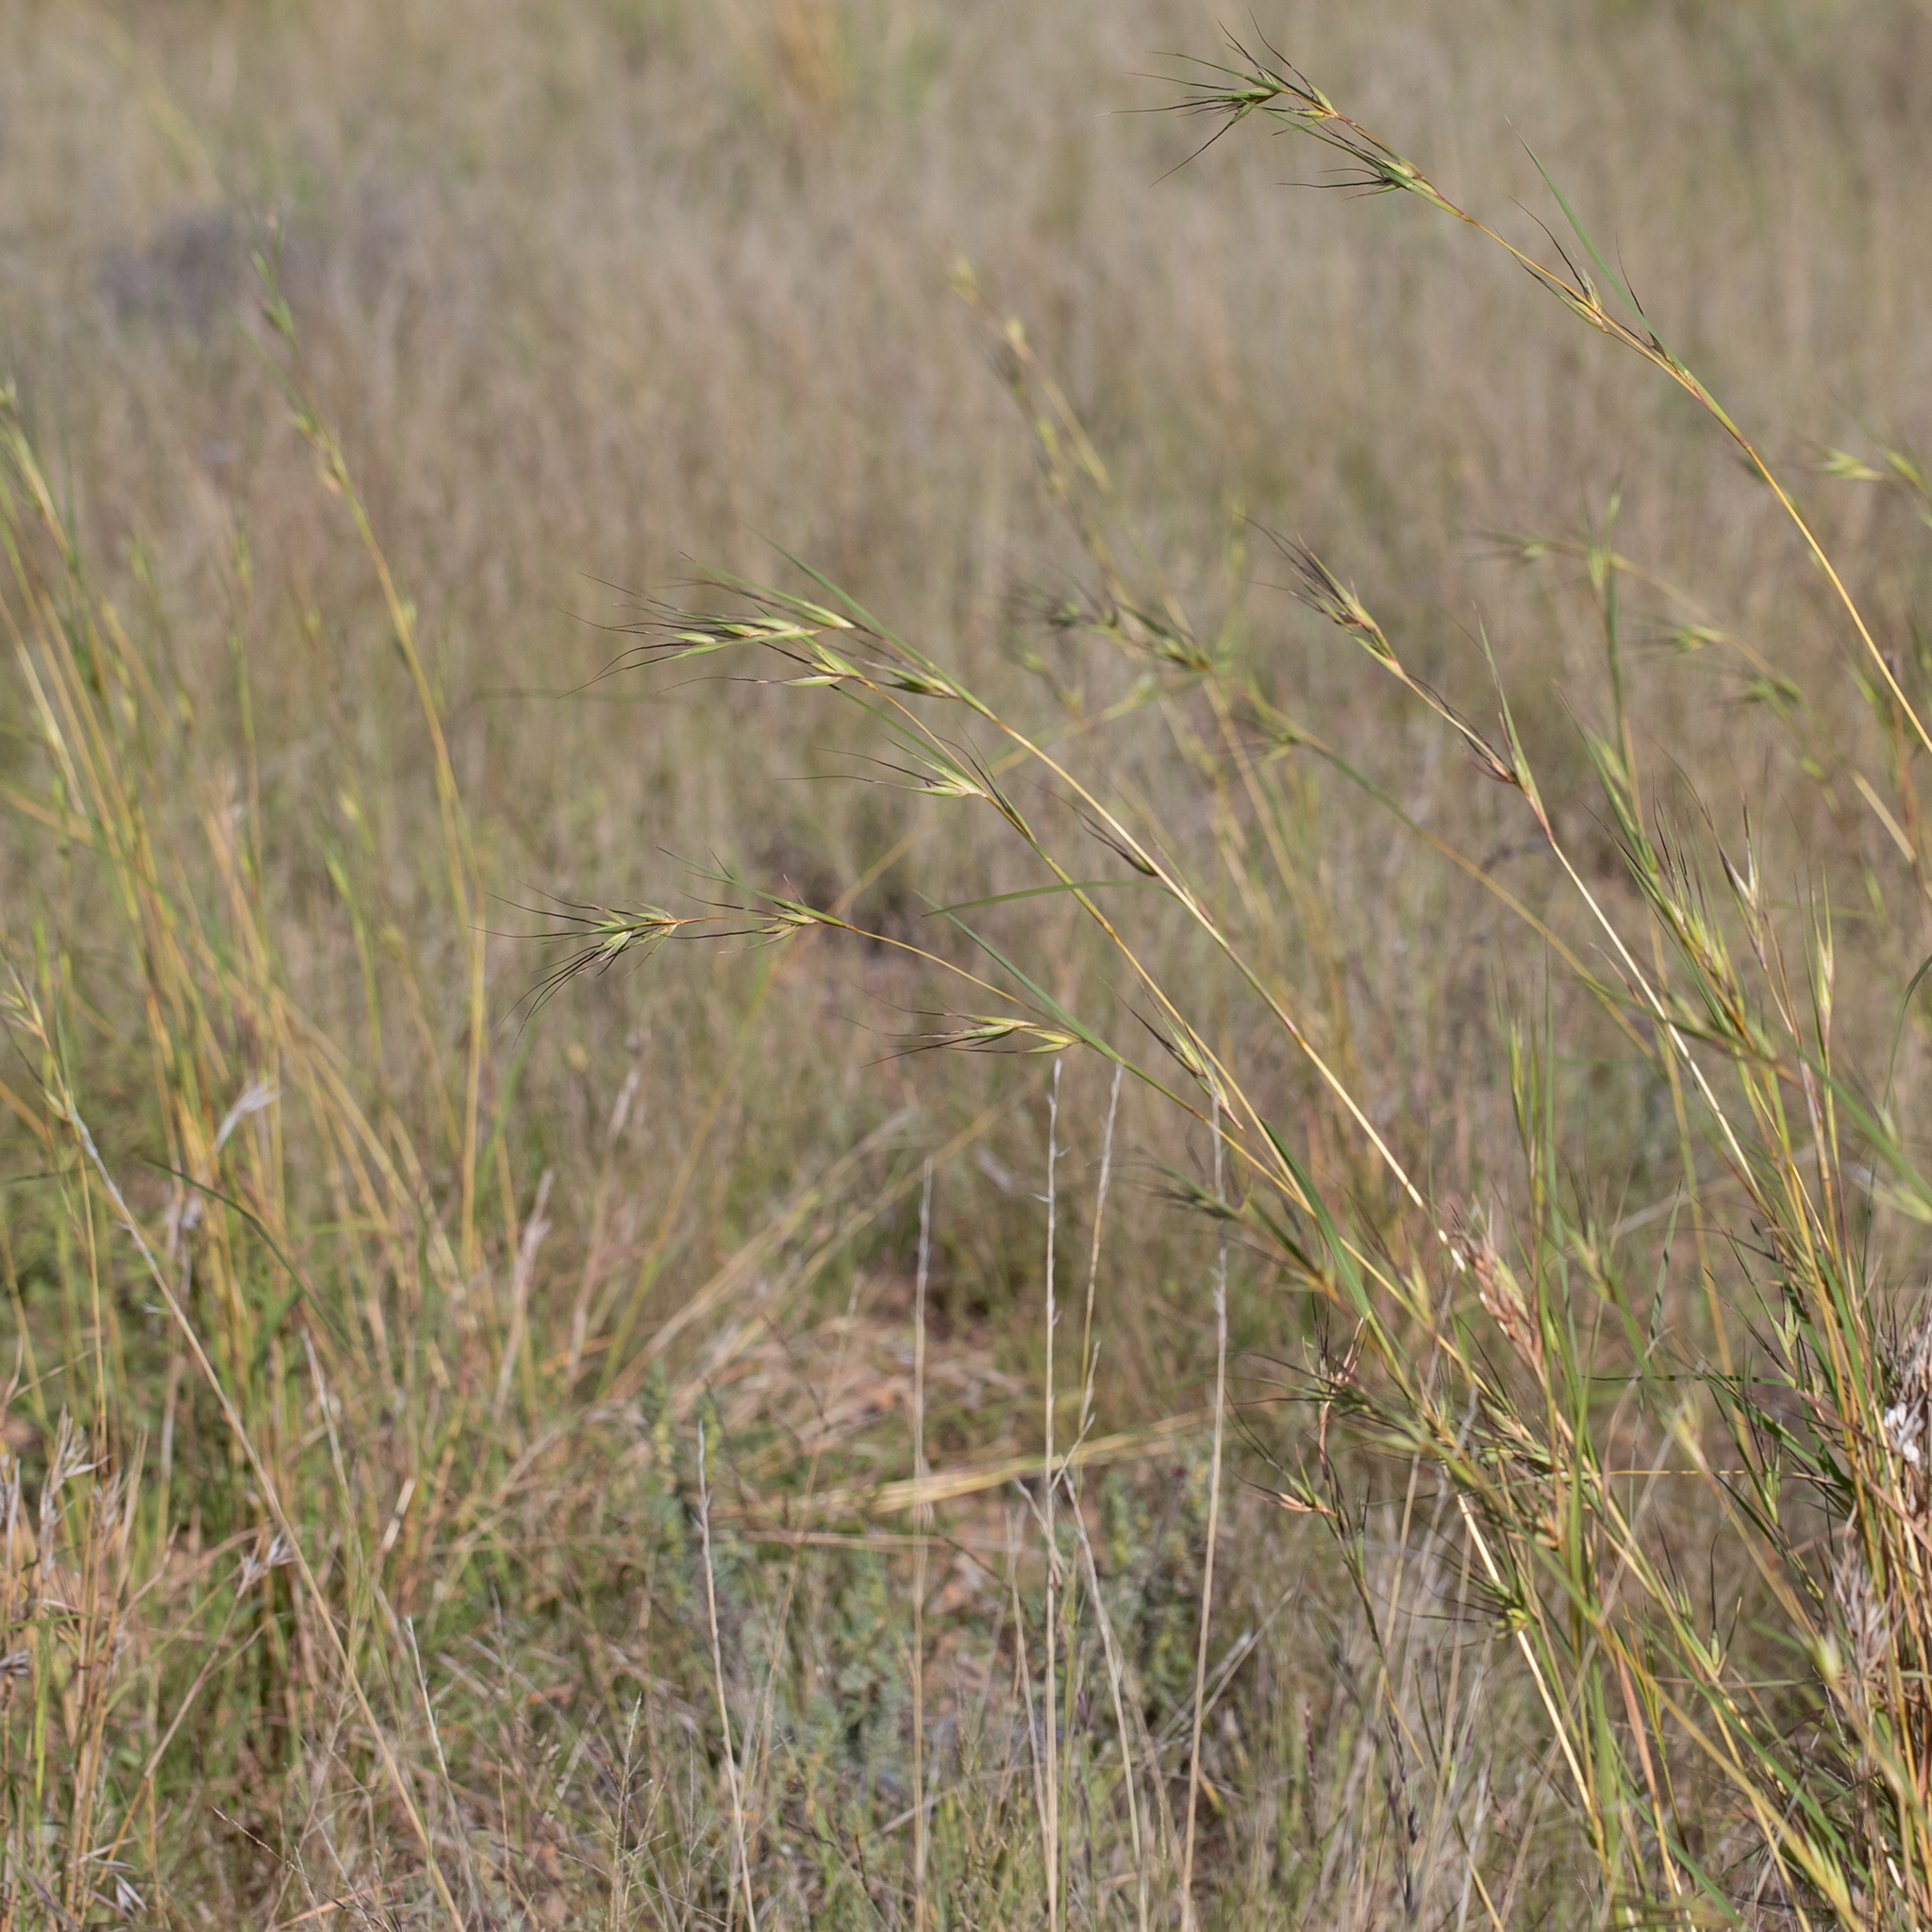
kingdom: Plantae
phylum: Tracheophyta
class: Liliopsida
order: Poales
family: Poaceae
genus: Themeda
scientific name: Themeda triandra
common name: Kangaroo grass
